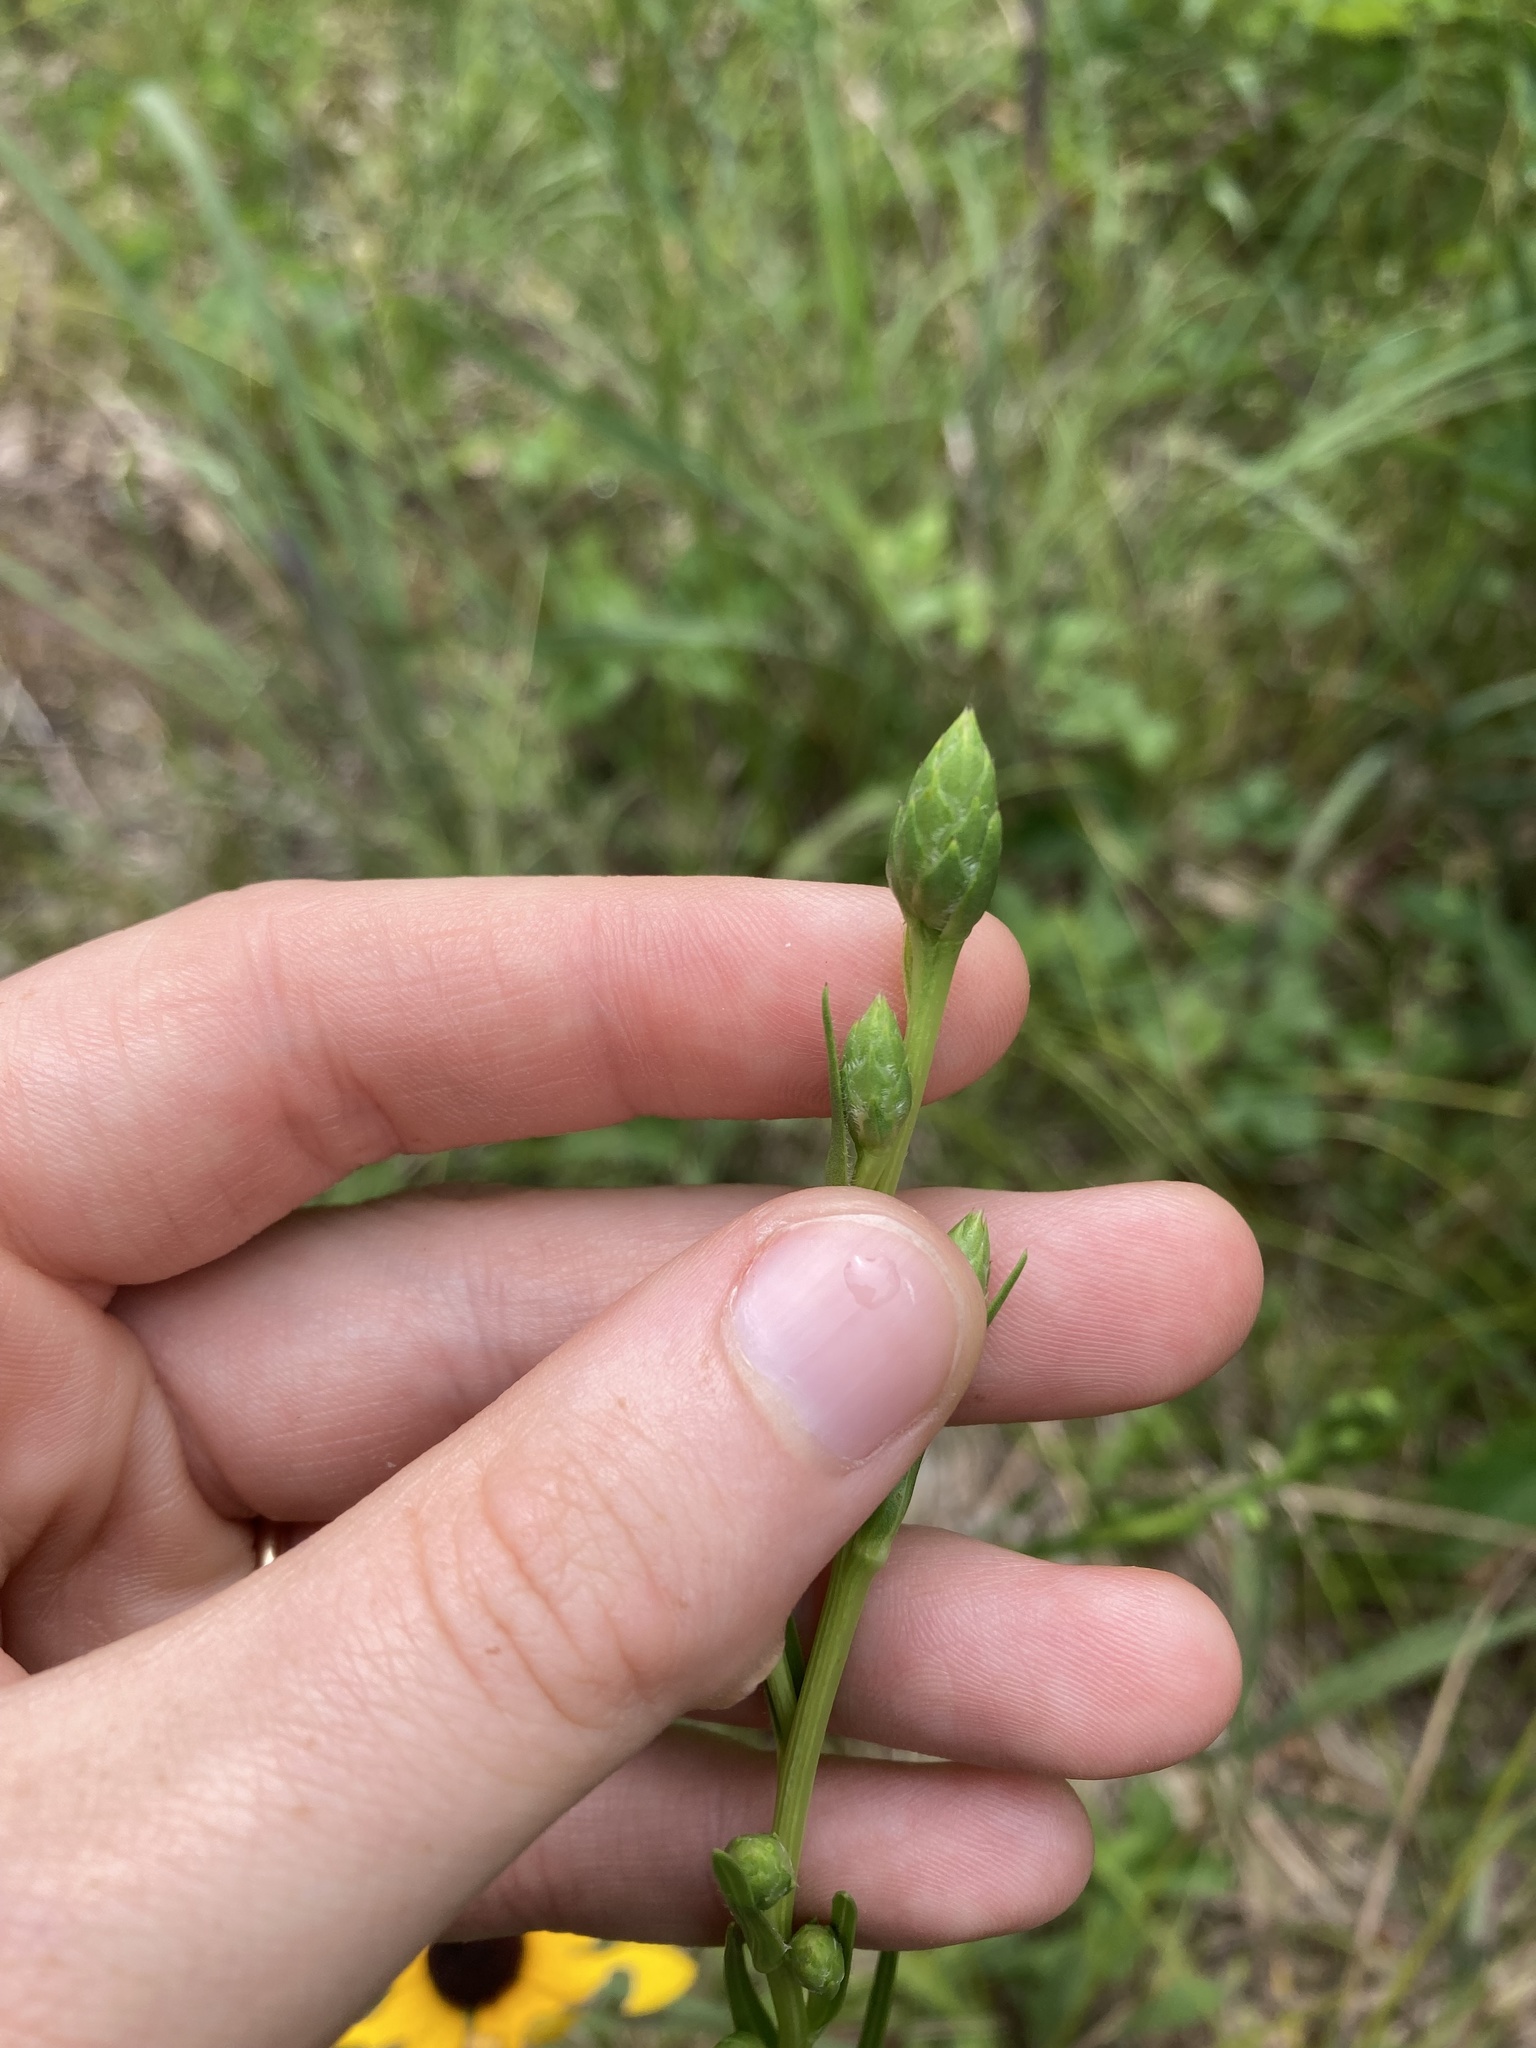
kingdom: Plantae
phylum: Tracheophyta
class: Magnoliopsida
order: Asterales
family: Asteraceae
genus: Liatris
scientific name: Liatris cylindracea
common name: Few-head blazingstar
